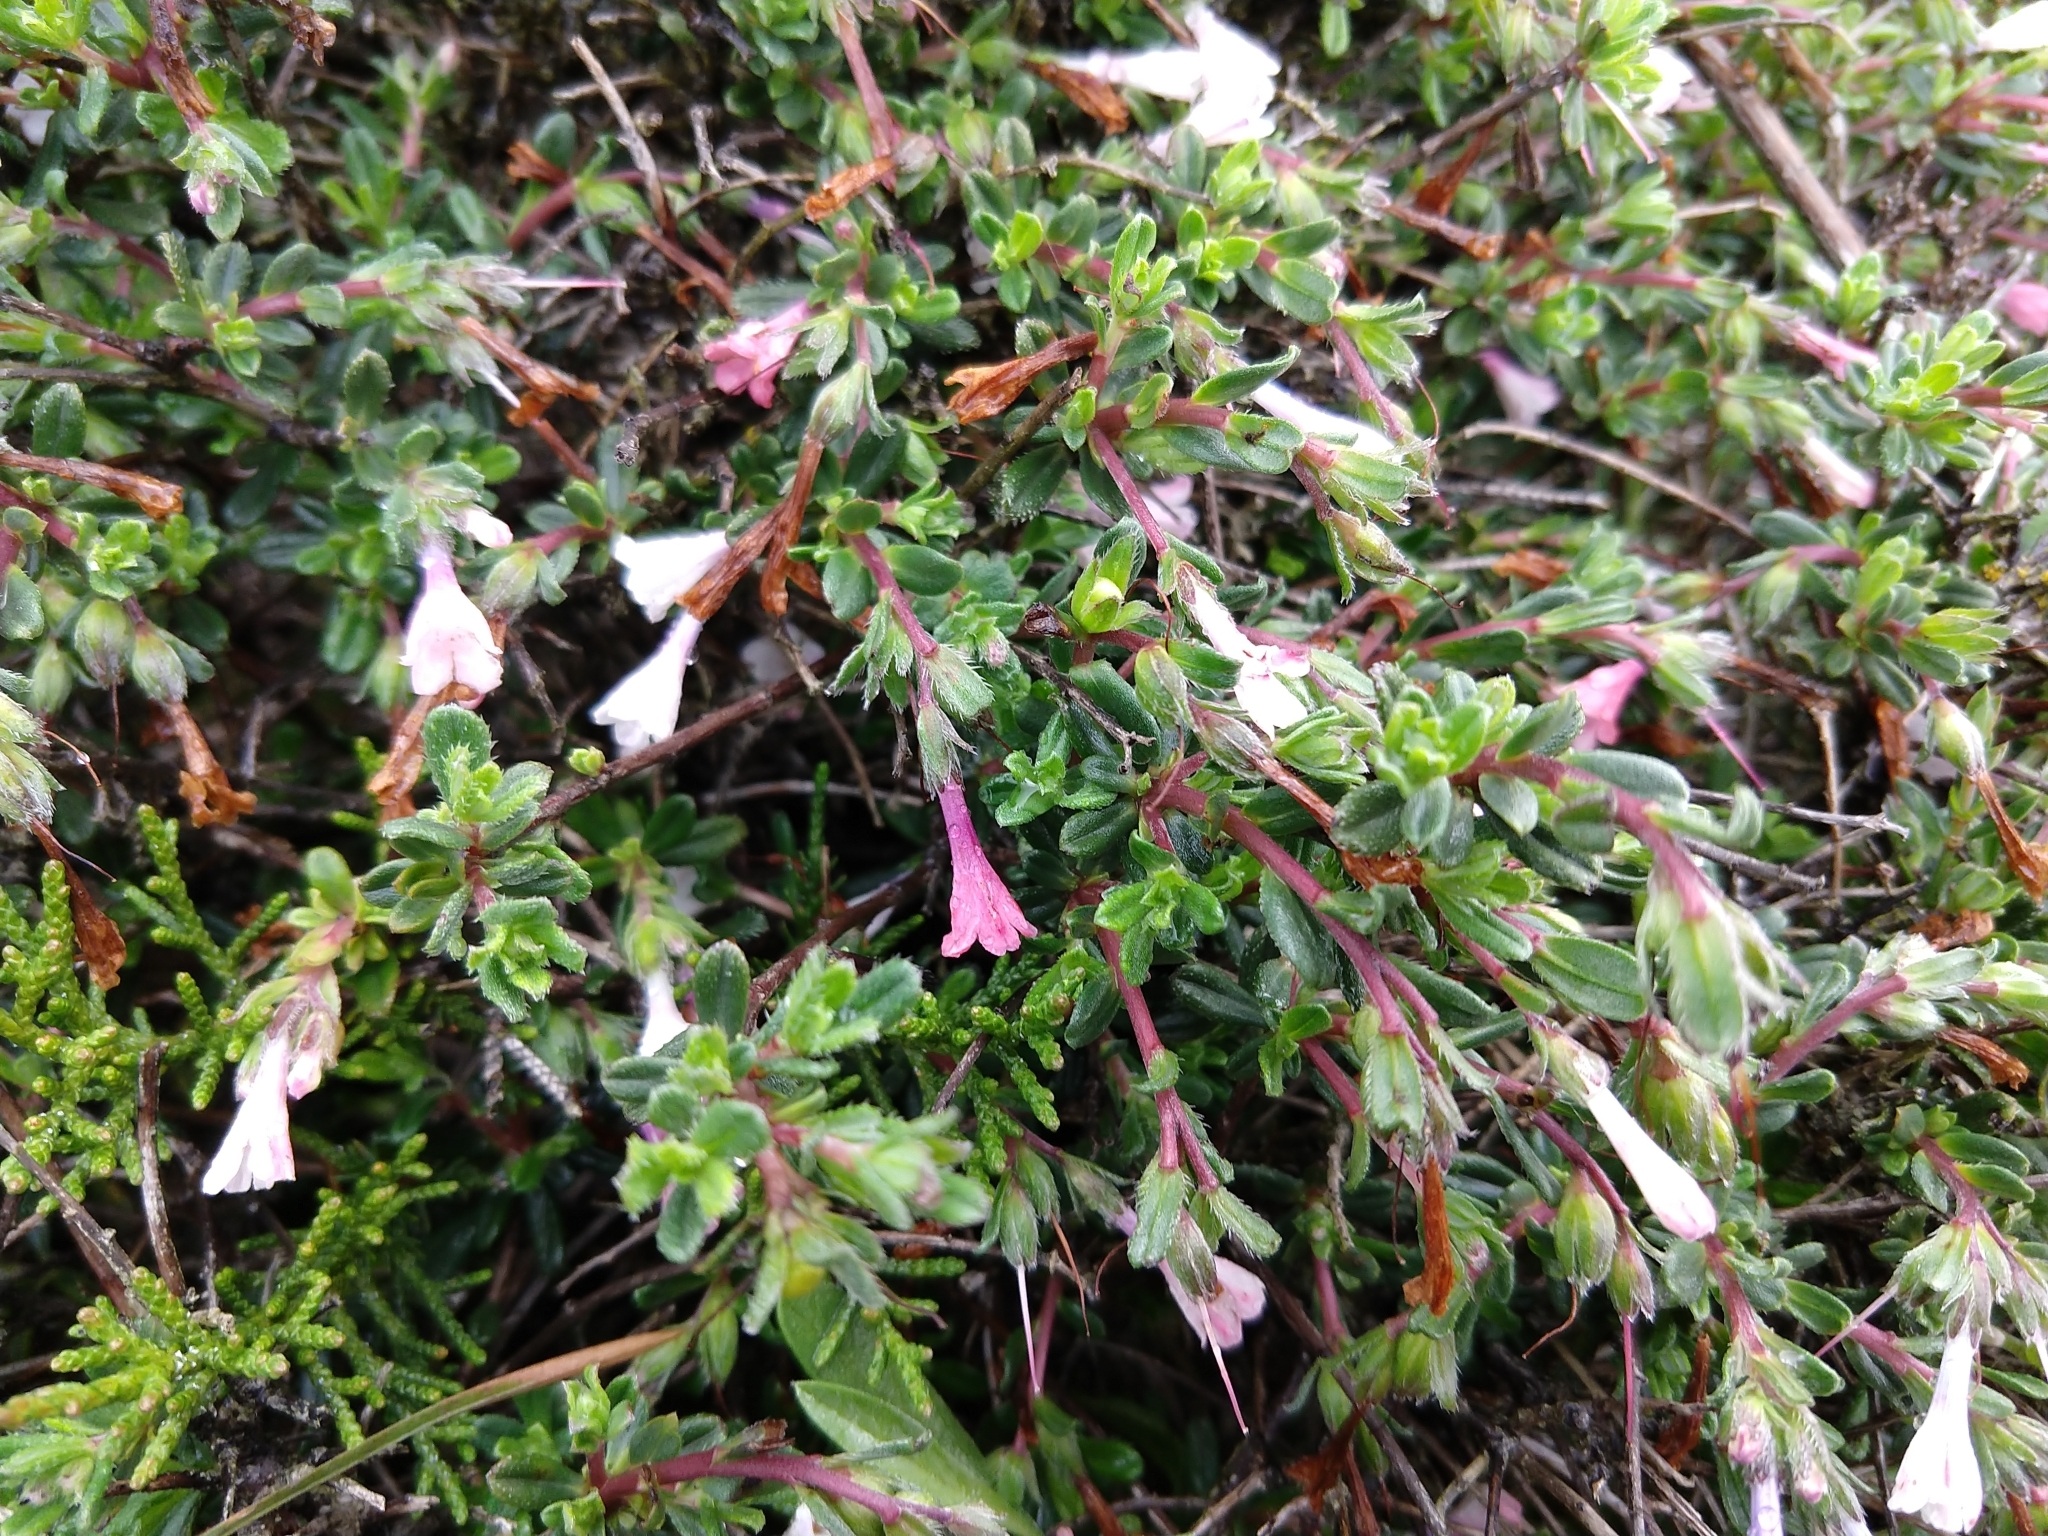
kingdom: Plantae
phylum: Tracheophyta
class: Magnoliopsida
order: Boraginales
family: Boraginaceae
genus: Lithodora
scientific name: Lithodora hispidula
